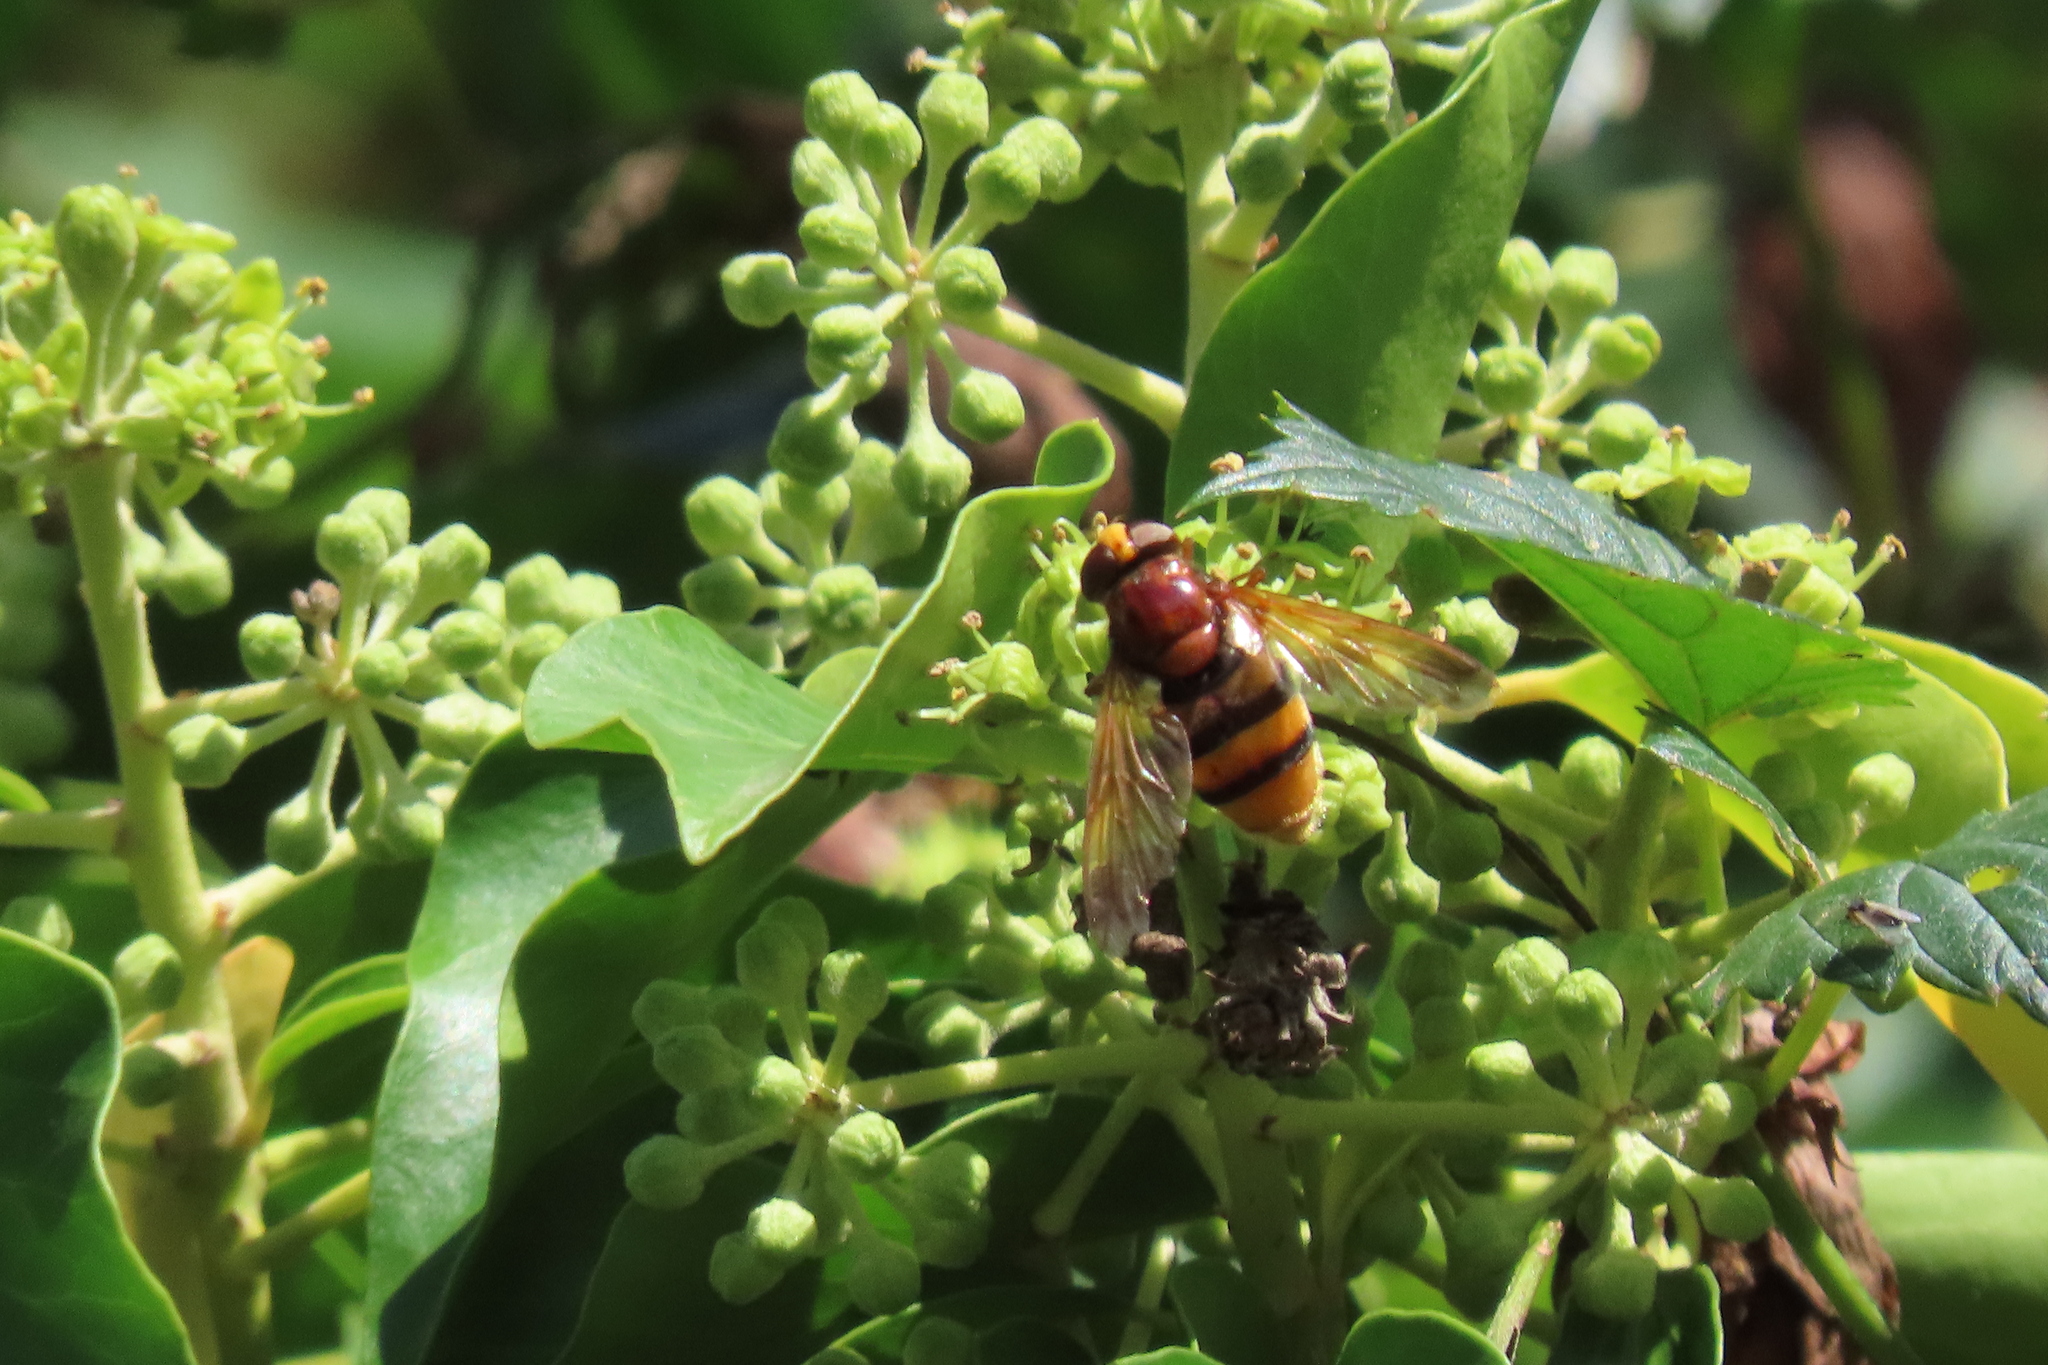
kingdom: Animalia
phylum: Arthropoda
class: Insecta
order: Diptera
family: Syrphidae
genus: Volucella
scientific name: Volucella zonaria
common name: Hornet hoverfly
